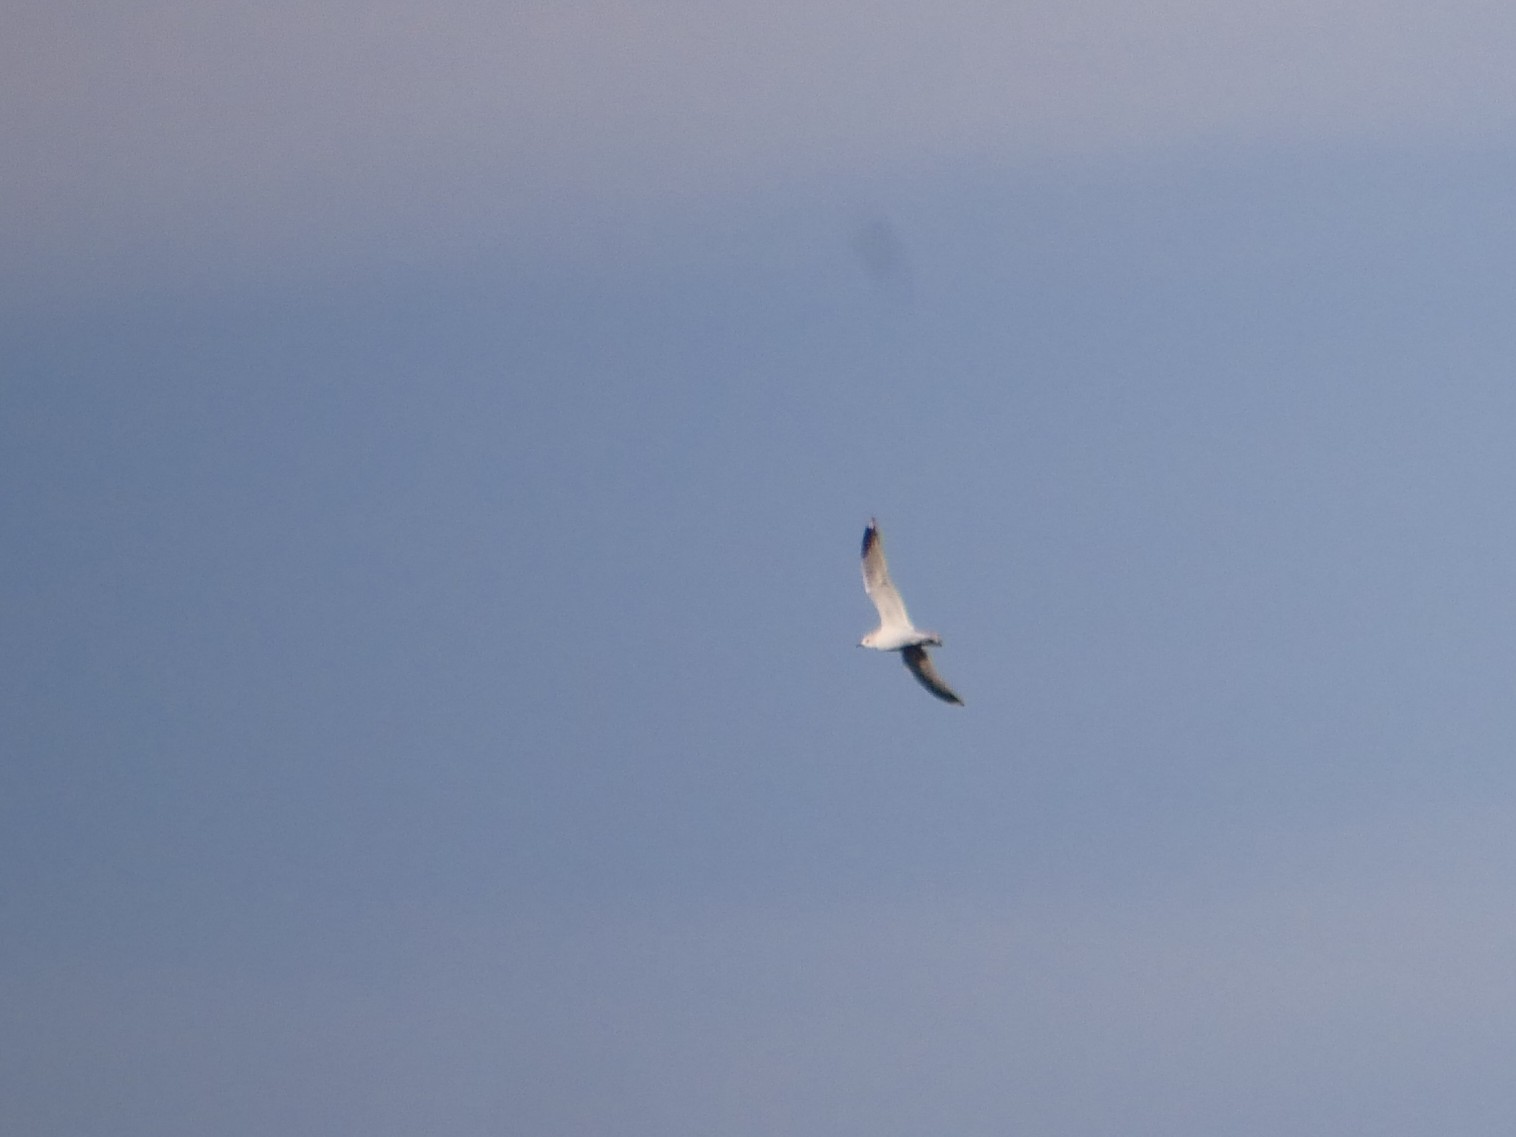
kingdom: Animalia
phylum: Chordata
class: Aves
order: Charadriiformes
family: Laridae
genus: Larus
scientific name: Larus canus
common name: Mew gull
